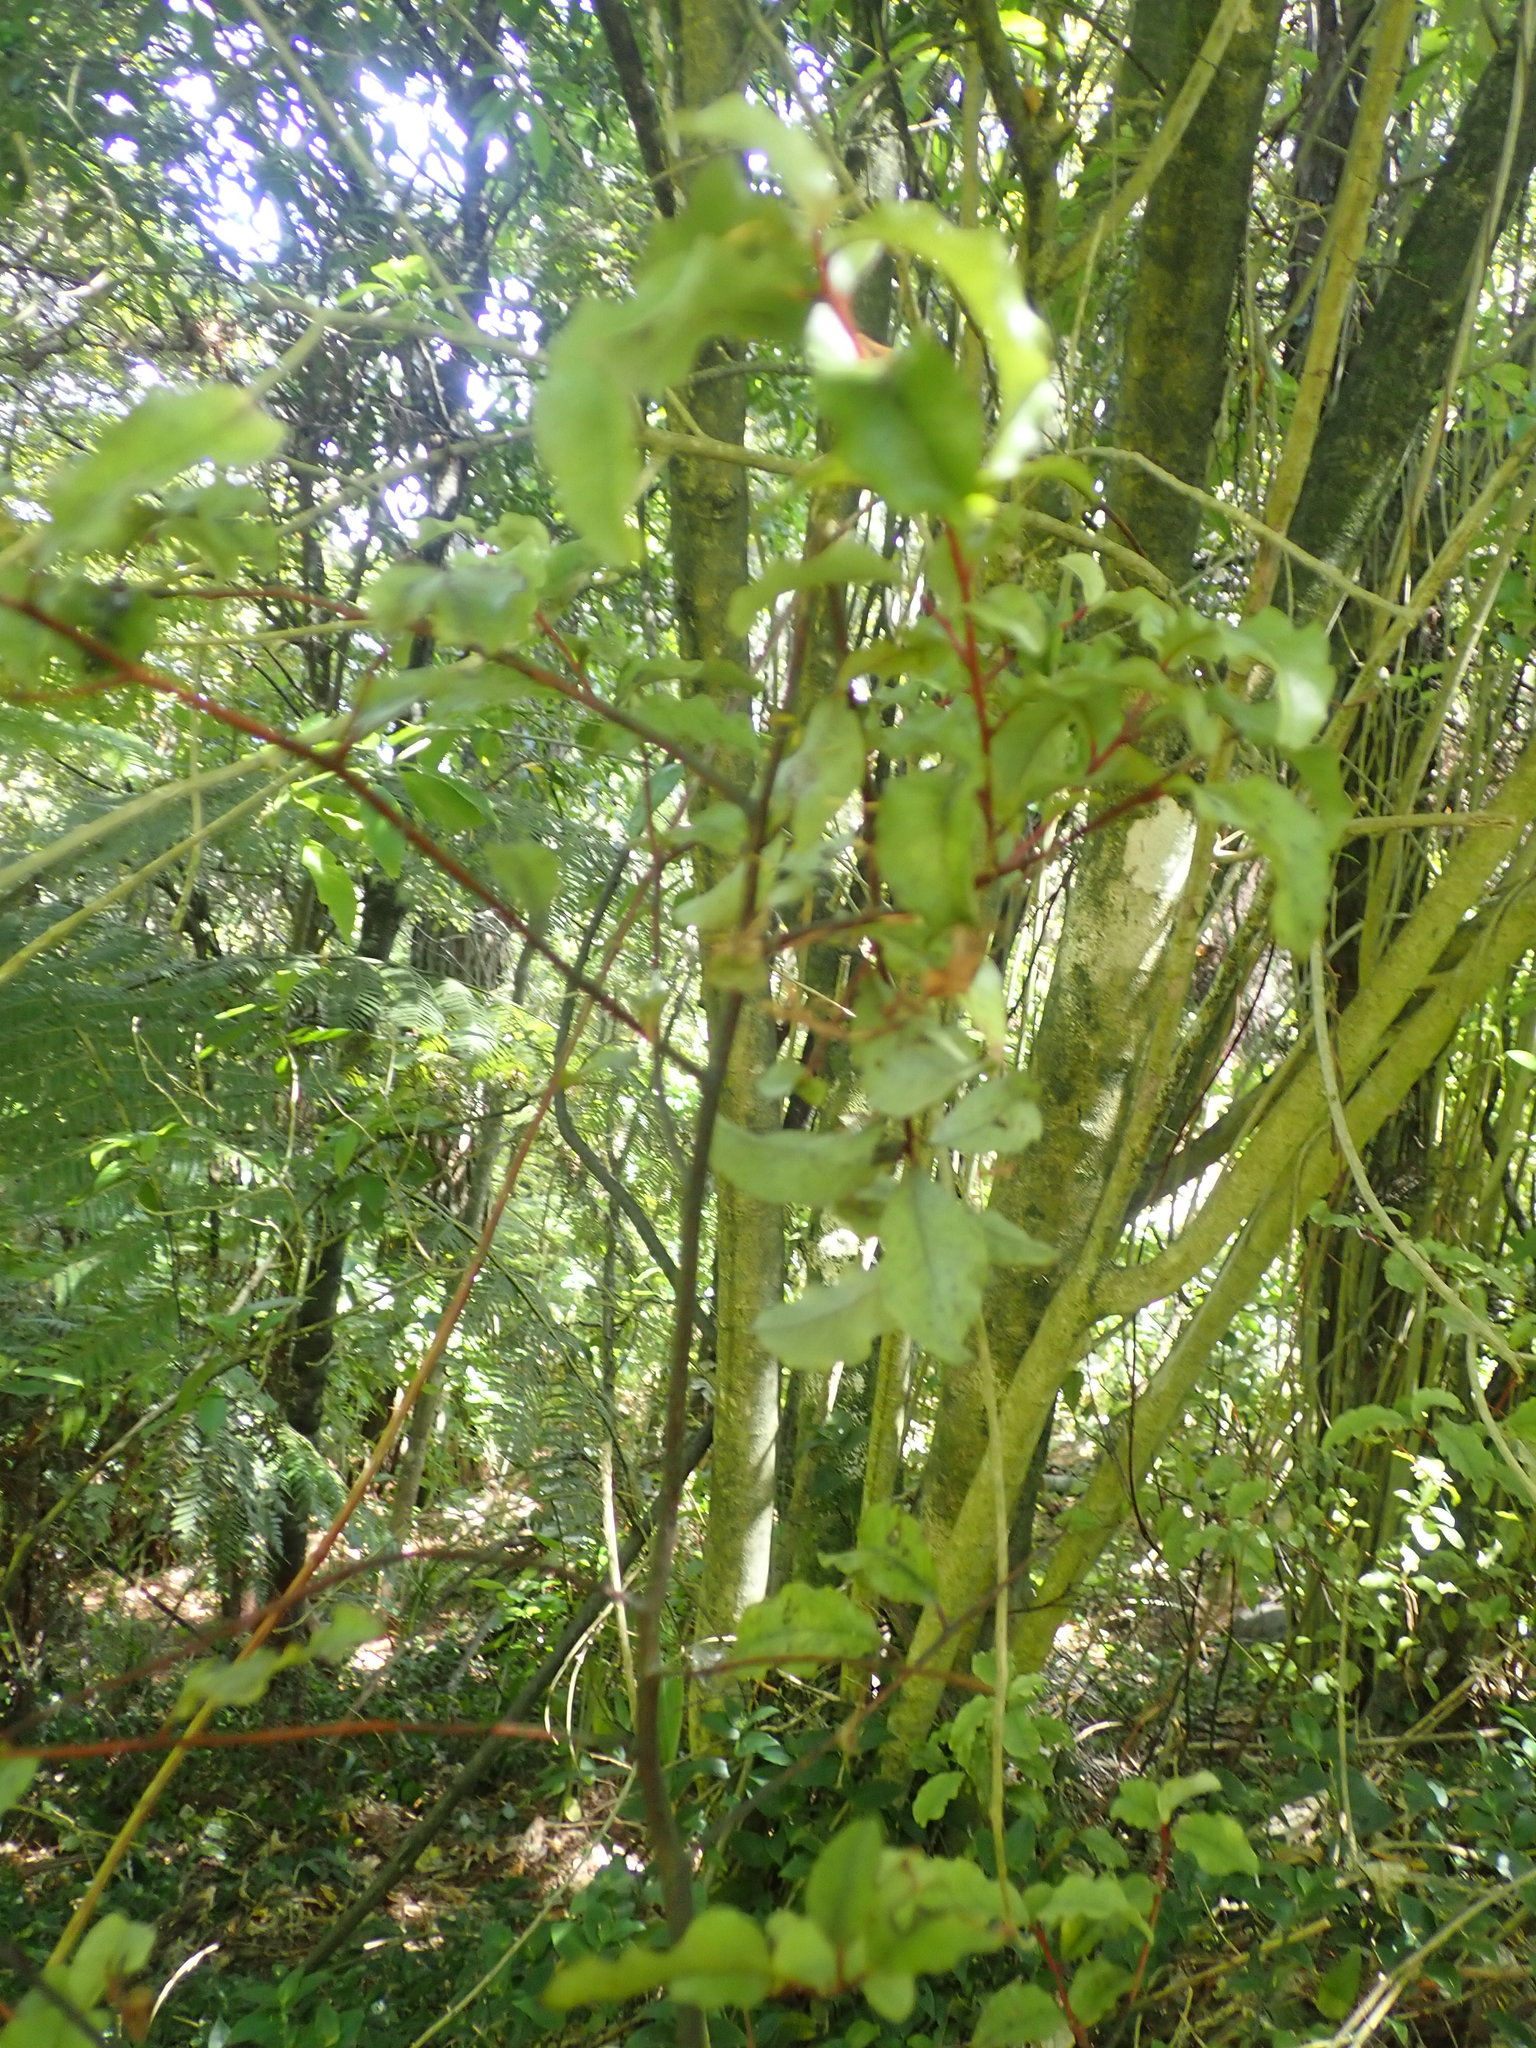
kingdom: Plantae
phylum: Tracheophyta
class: Magnoliopsida
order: Ericales
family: Primulaceae
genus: Myrsine
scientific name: Myrsine australis
